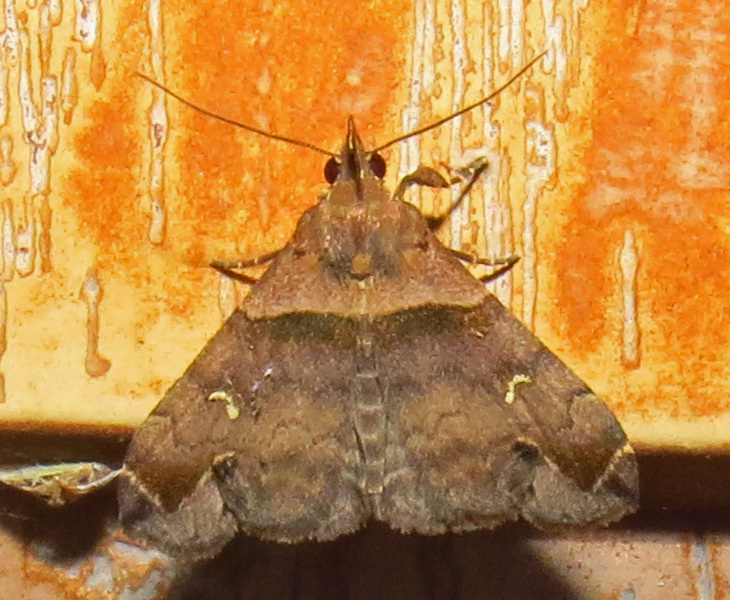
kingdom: Animalia
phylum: Arthropoda
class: Insecta
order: Lepidoptera
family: Erebidae
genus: Lascoria
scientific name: Lascoria ambigualis
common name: Ambiguous moth
